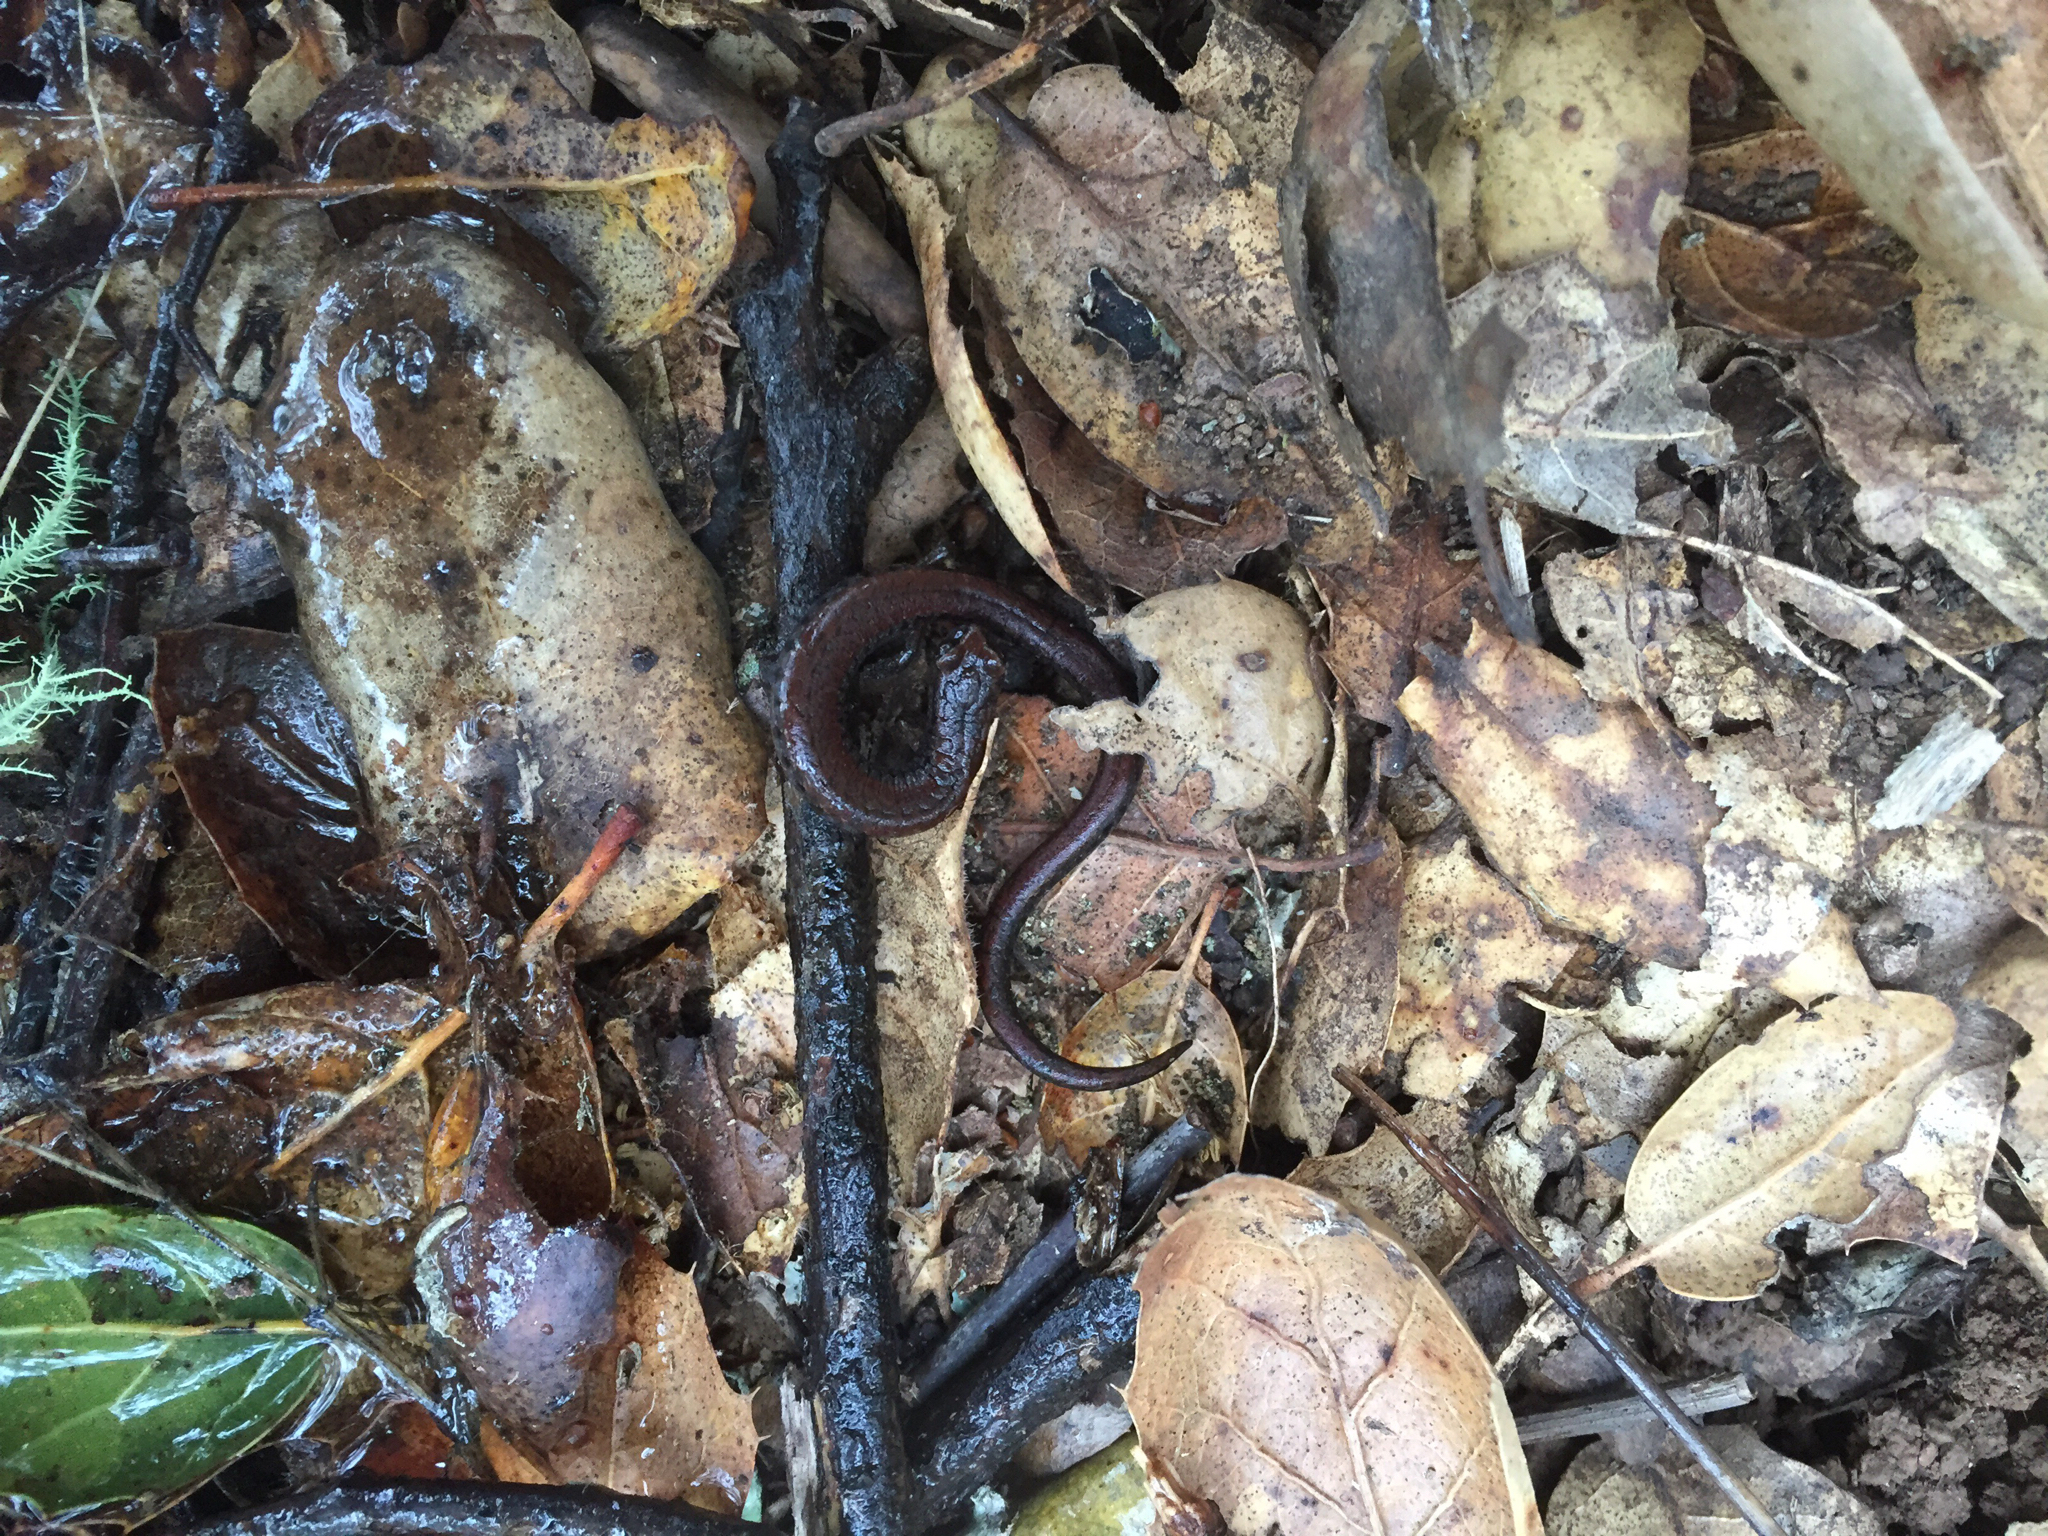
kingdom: Animalia
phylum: Chordata
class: Amphibia
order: Caudata
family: Plethodontidae
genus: Batrachoseps
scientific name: Batrachoseps attenuatus
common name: California slender salamander
